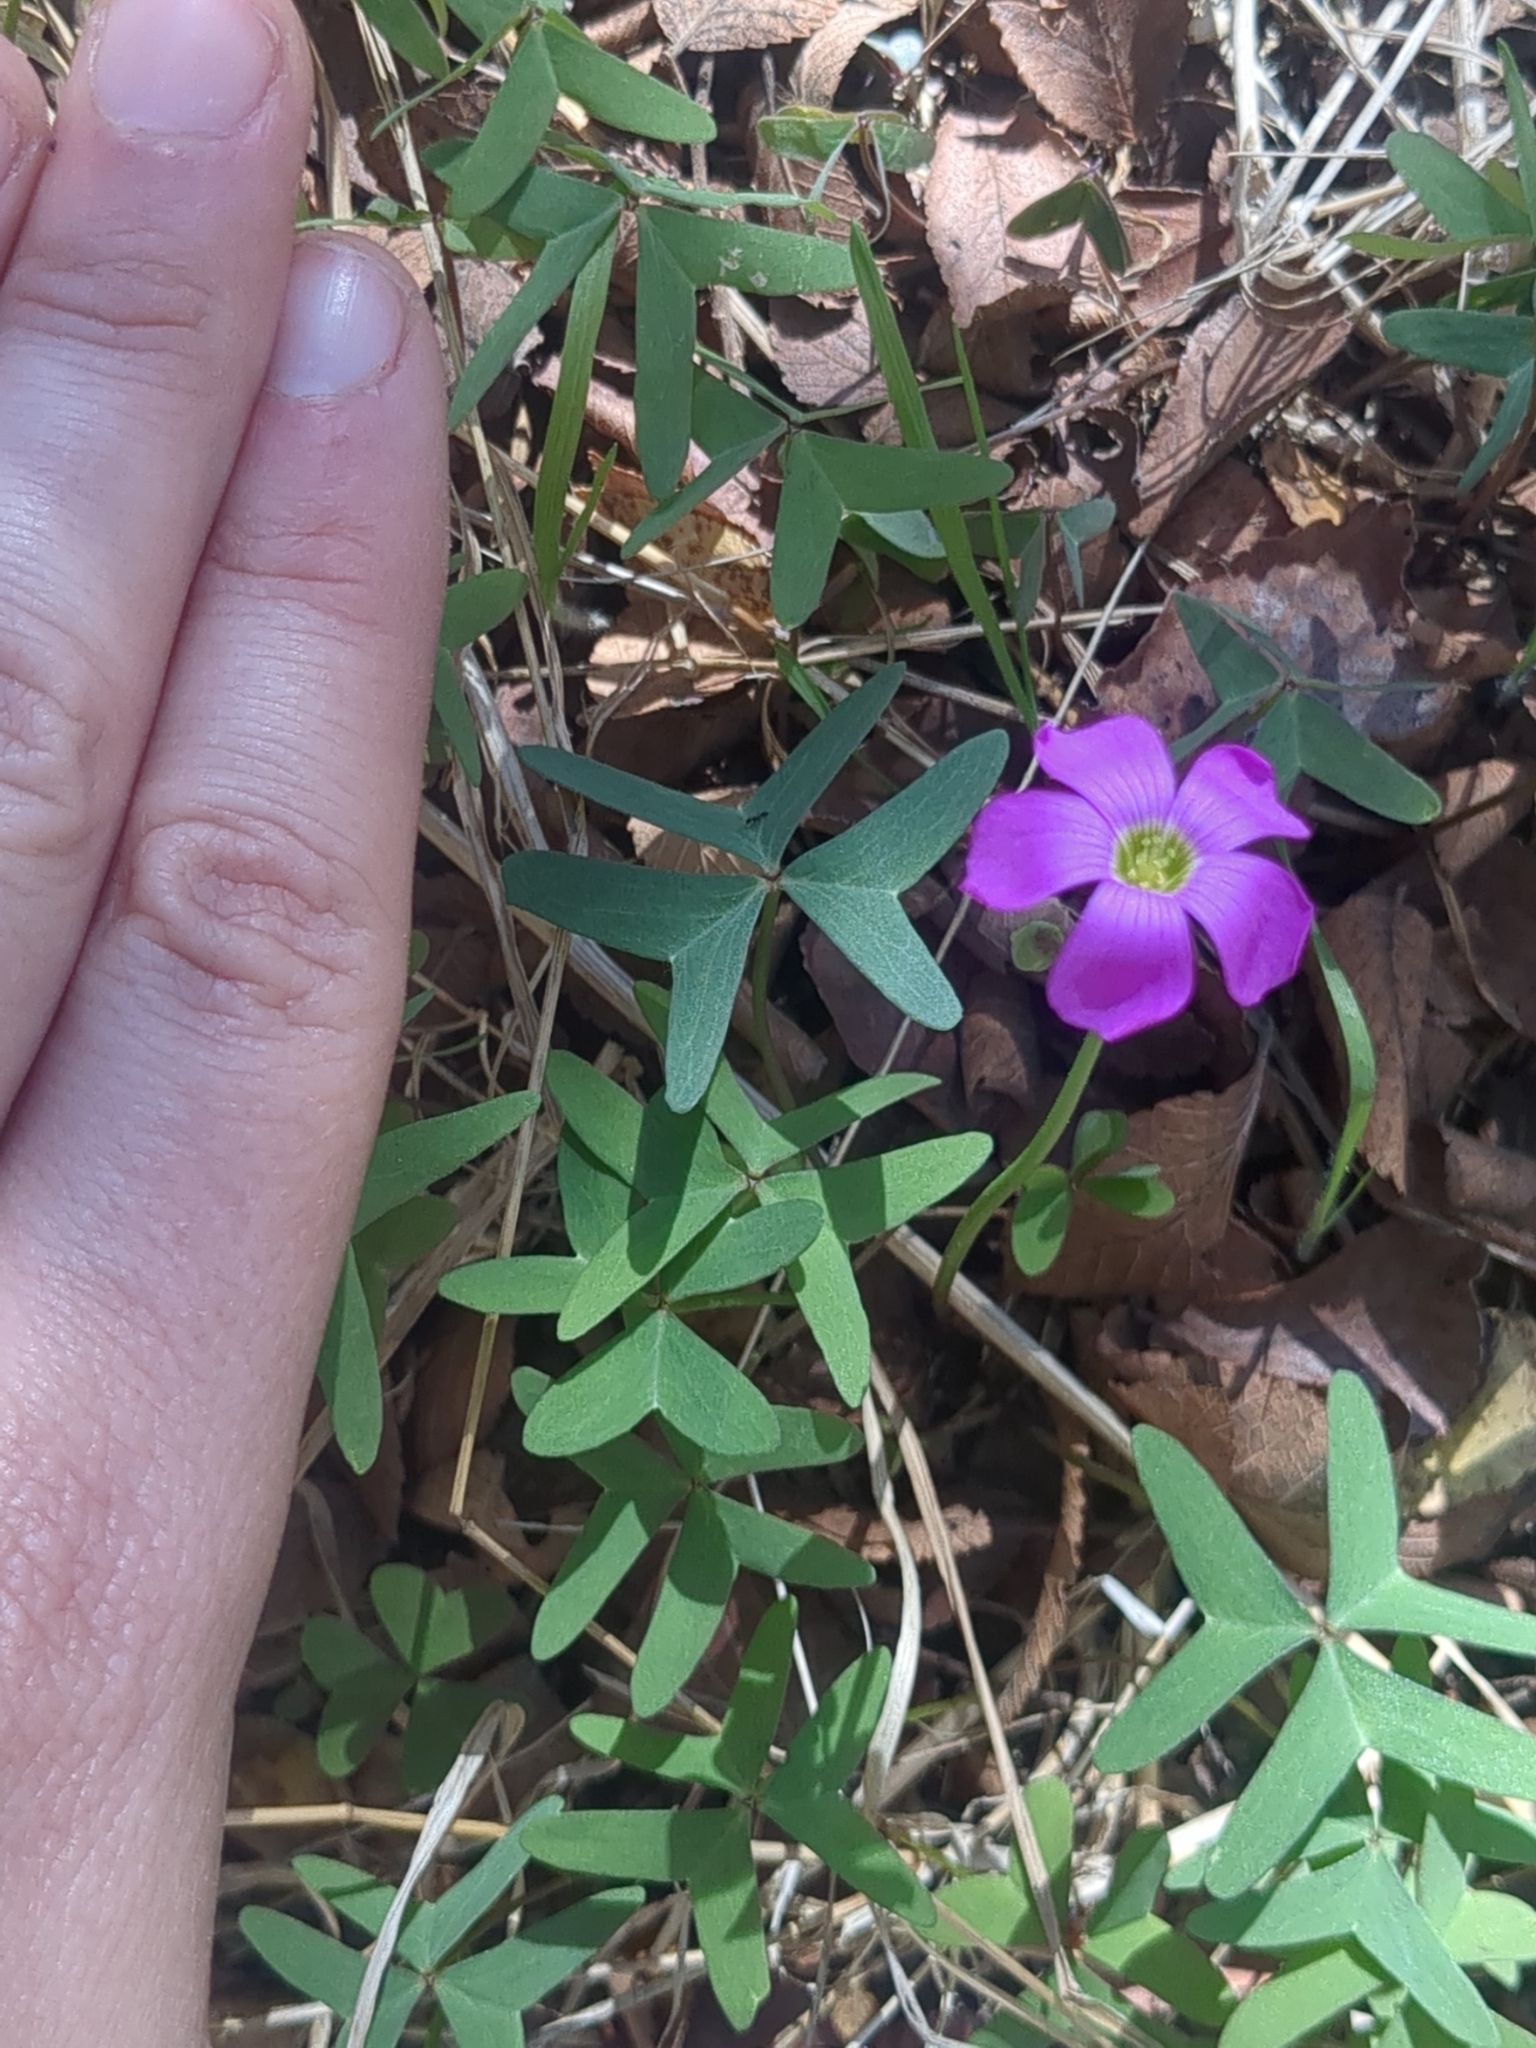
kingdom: Plantae
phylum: Tracheophyta
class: Magnoliopsida
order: Oxalidales
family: Oxalidaceae
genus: Oxalis
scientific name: Oxalis drummondii
